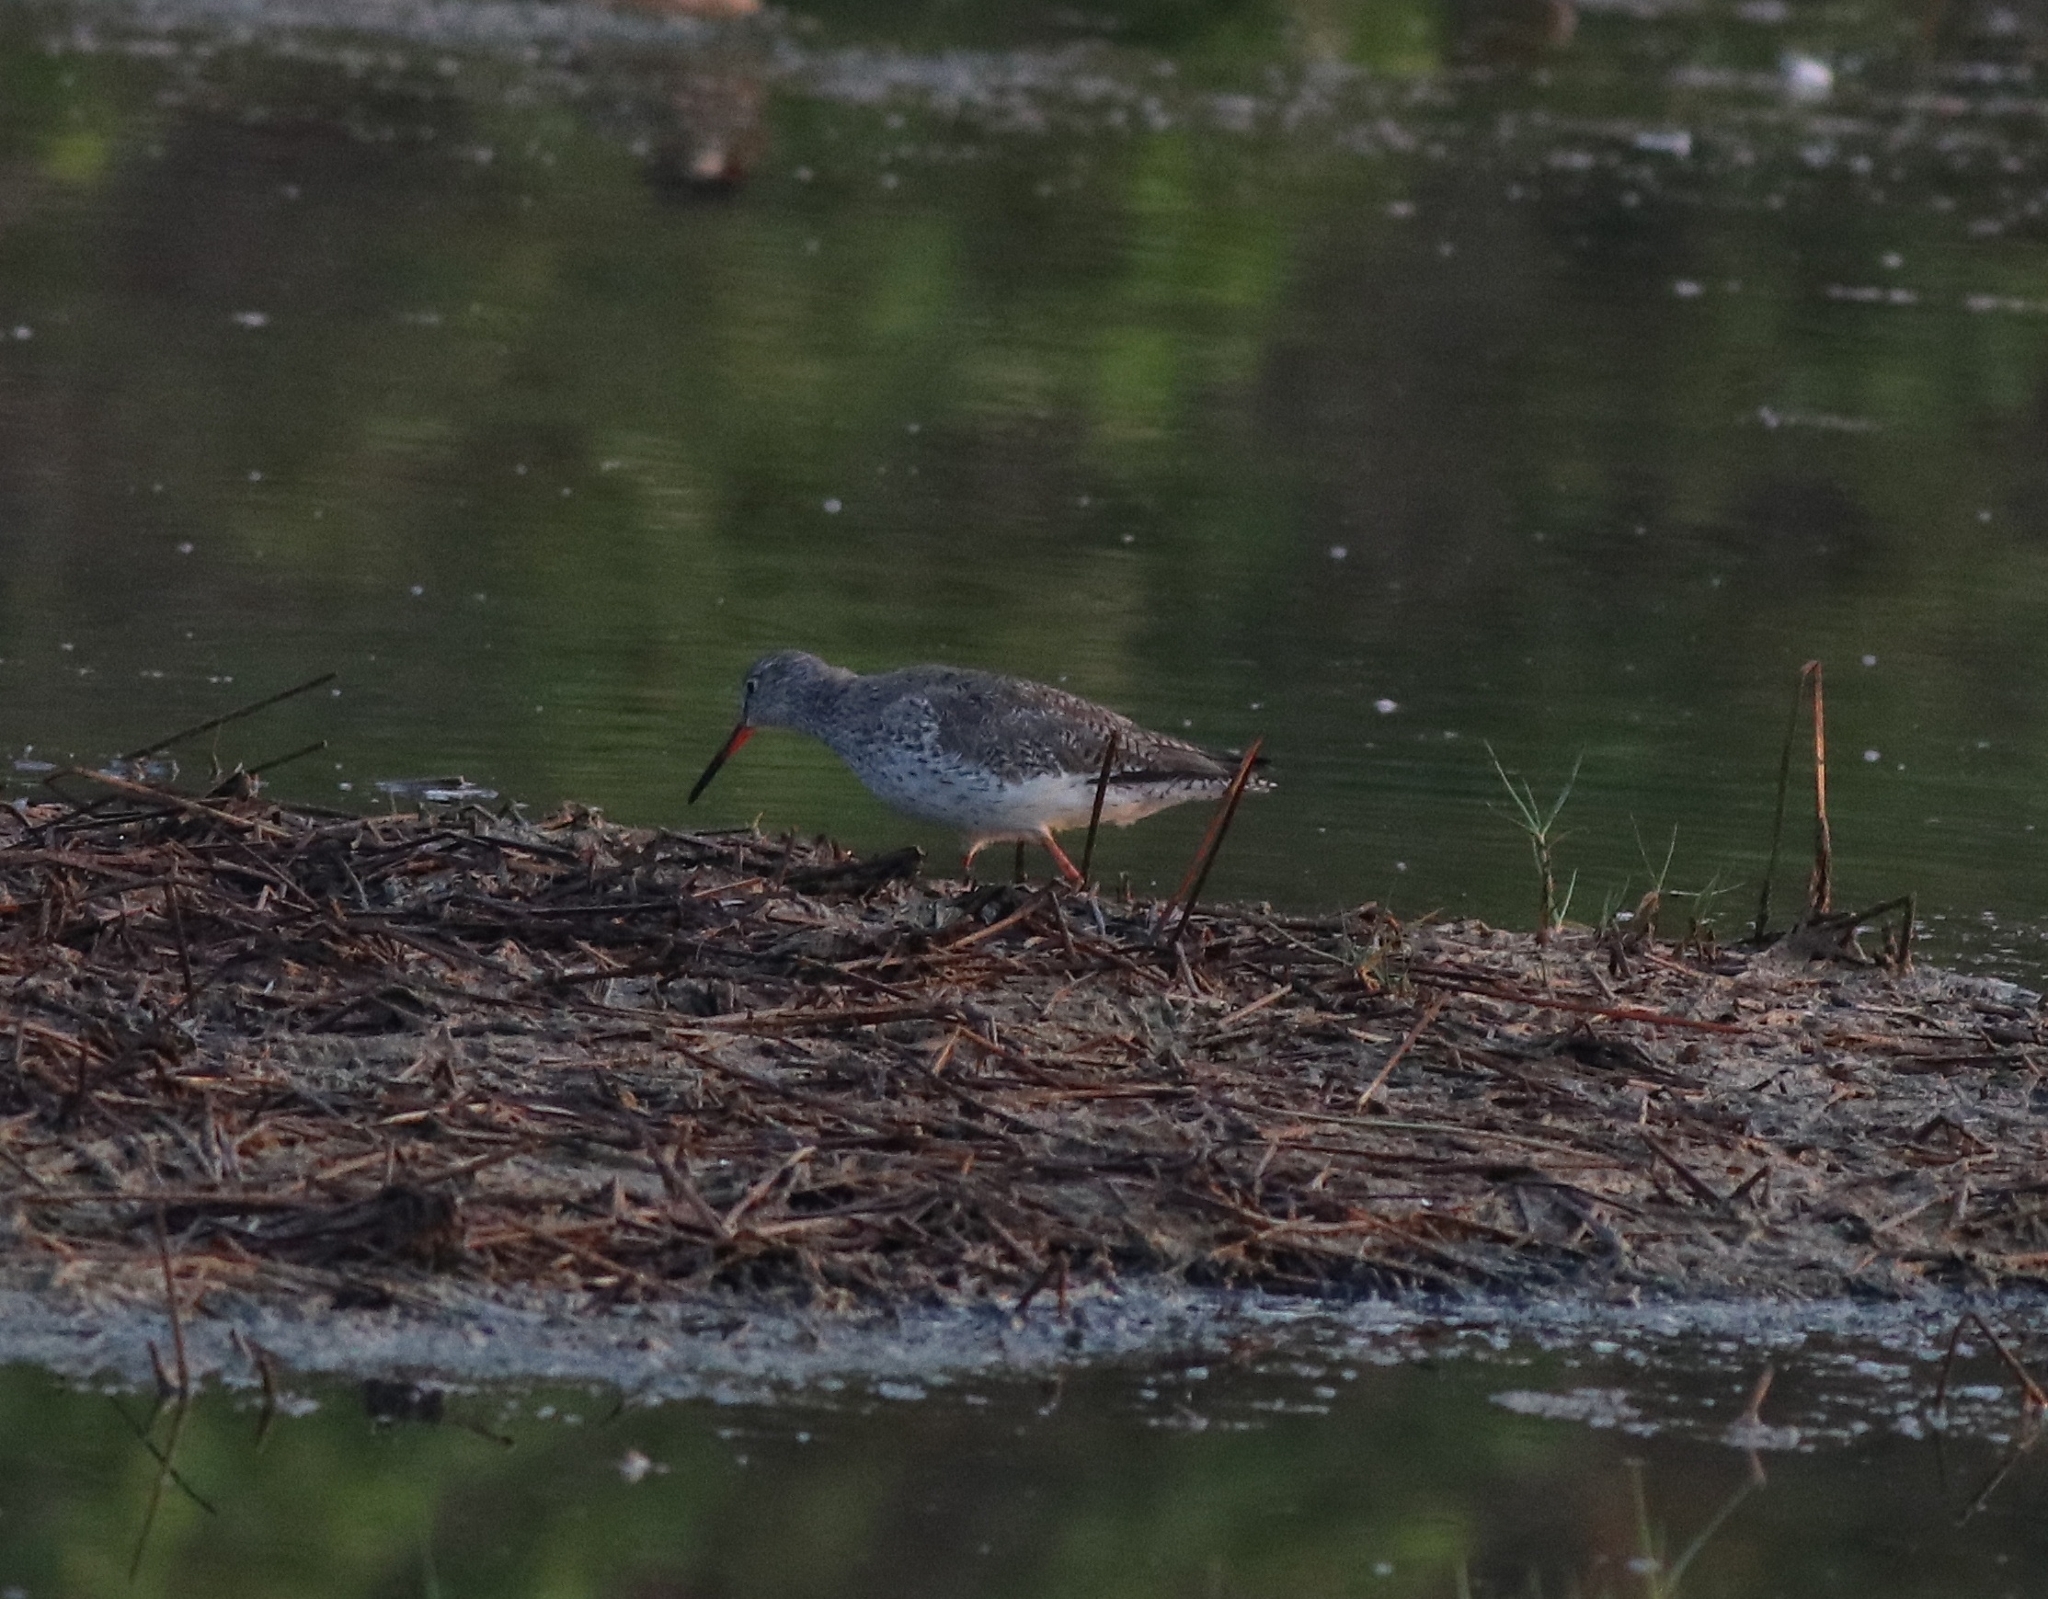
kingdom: Animalia
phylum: Chordata
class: Aves
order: Charadriiformes
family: Scolopacidae
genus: Tringa
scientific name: Tringa totanus
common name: Common redshank
